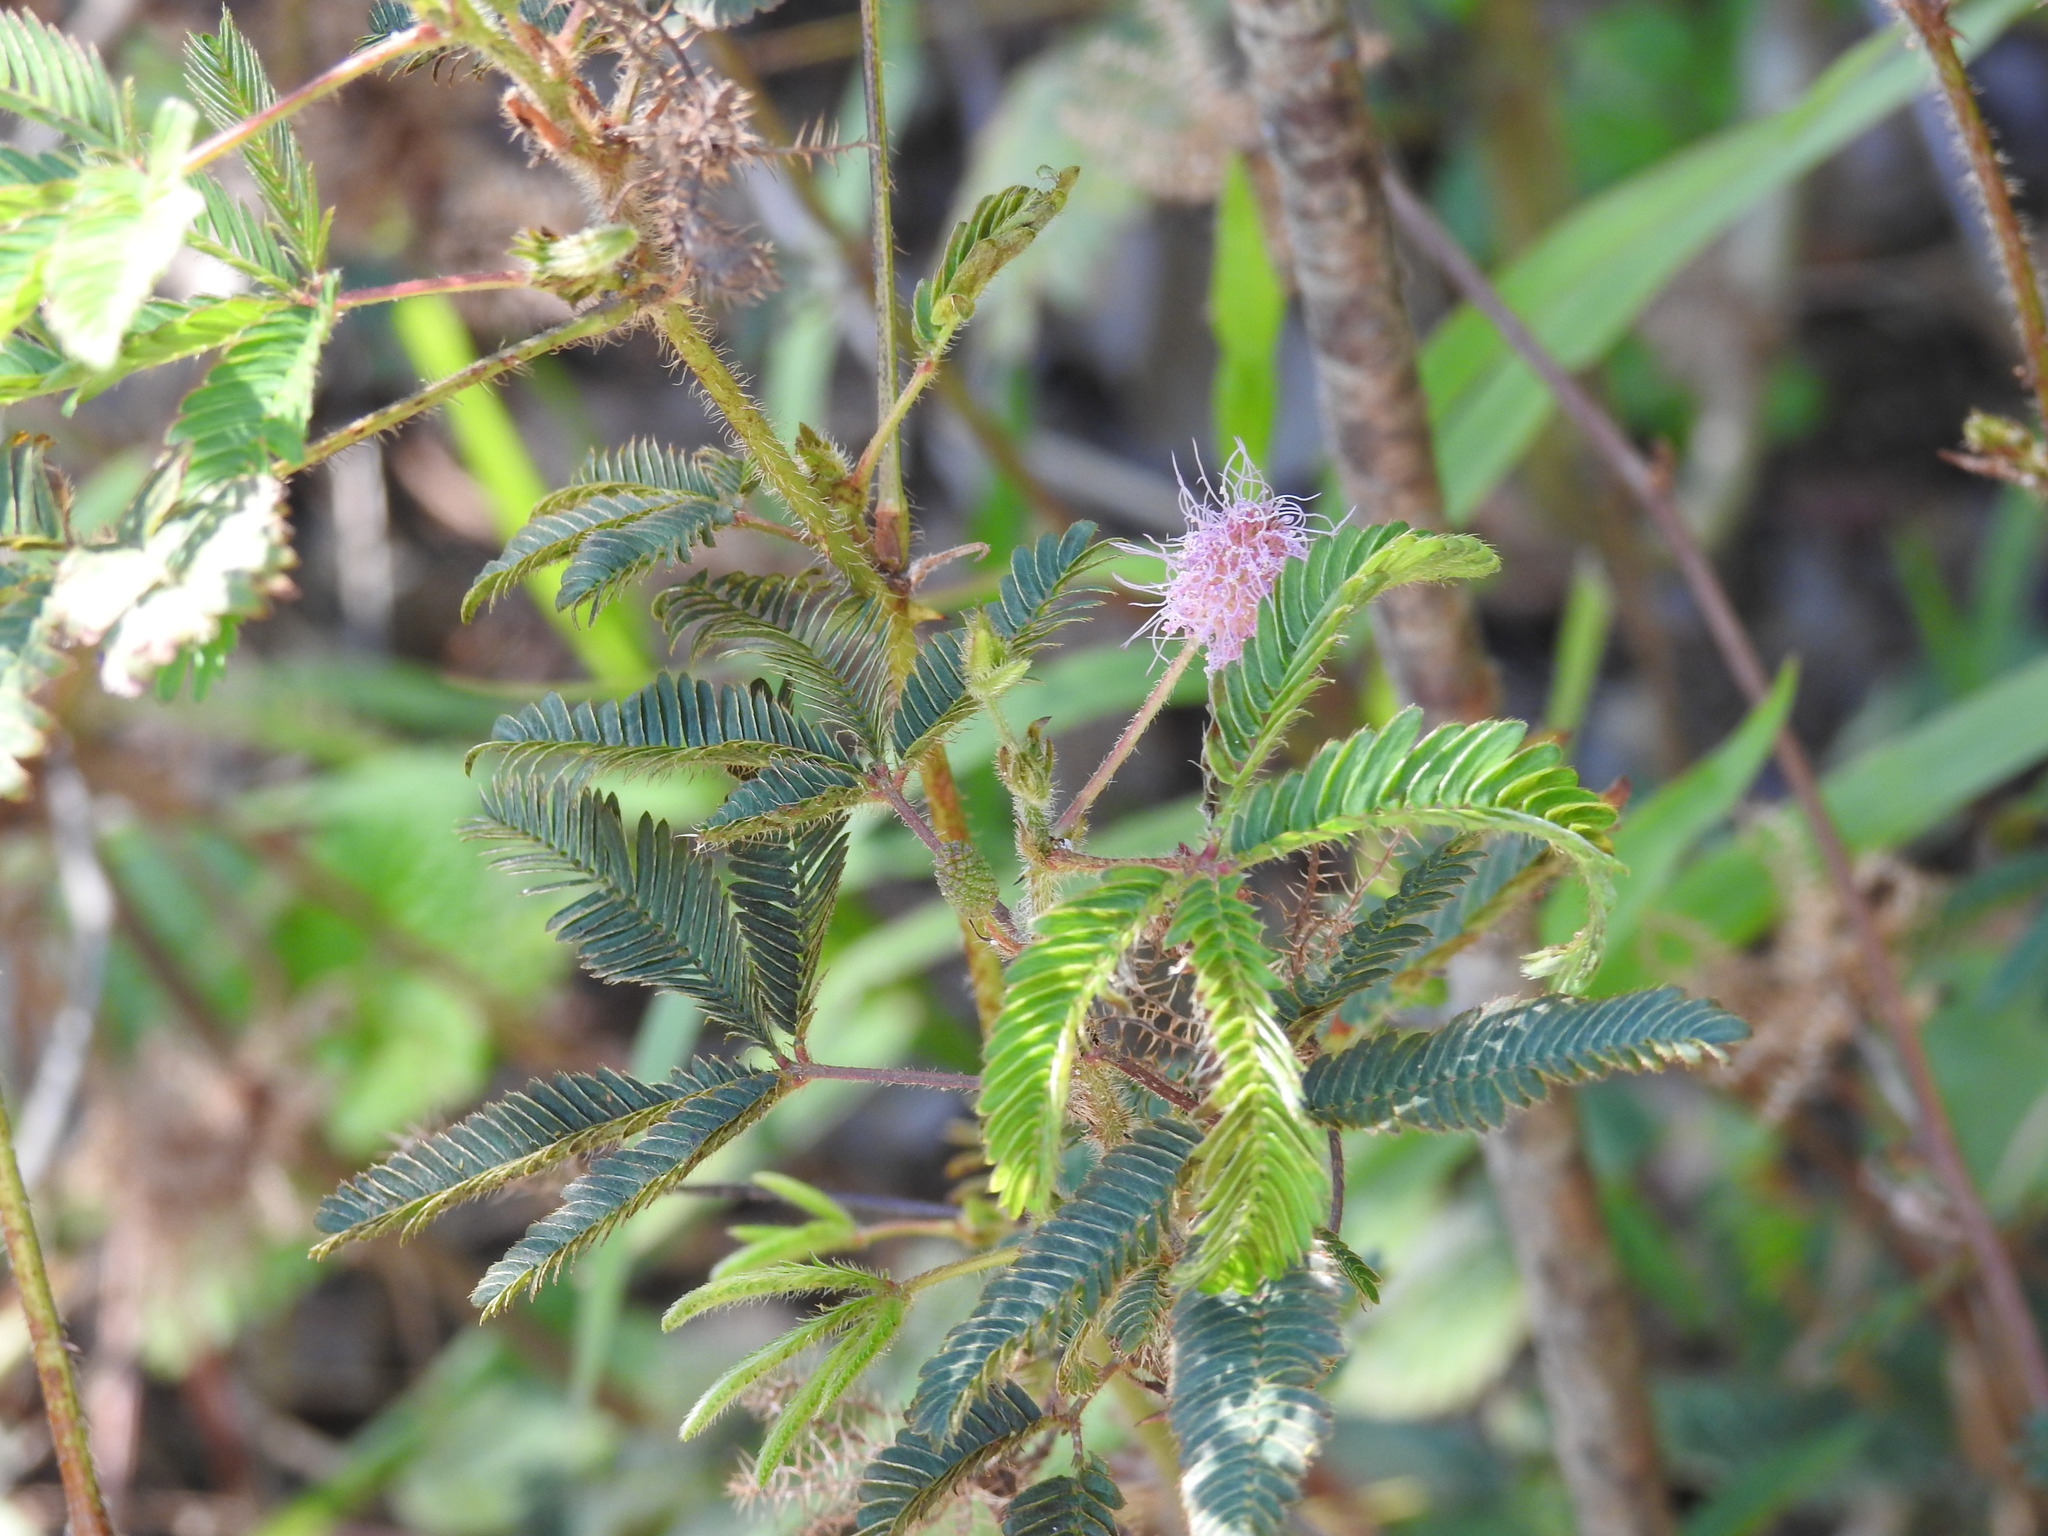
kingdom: Plantae
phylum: Tracheophyta
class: Magnoliopsida
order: Fabales
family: Fabaceae
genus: Mimosa
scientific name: Mimosa pudica
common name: Sensitive plant
